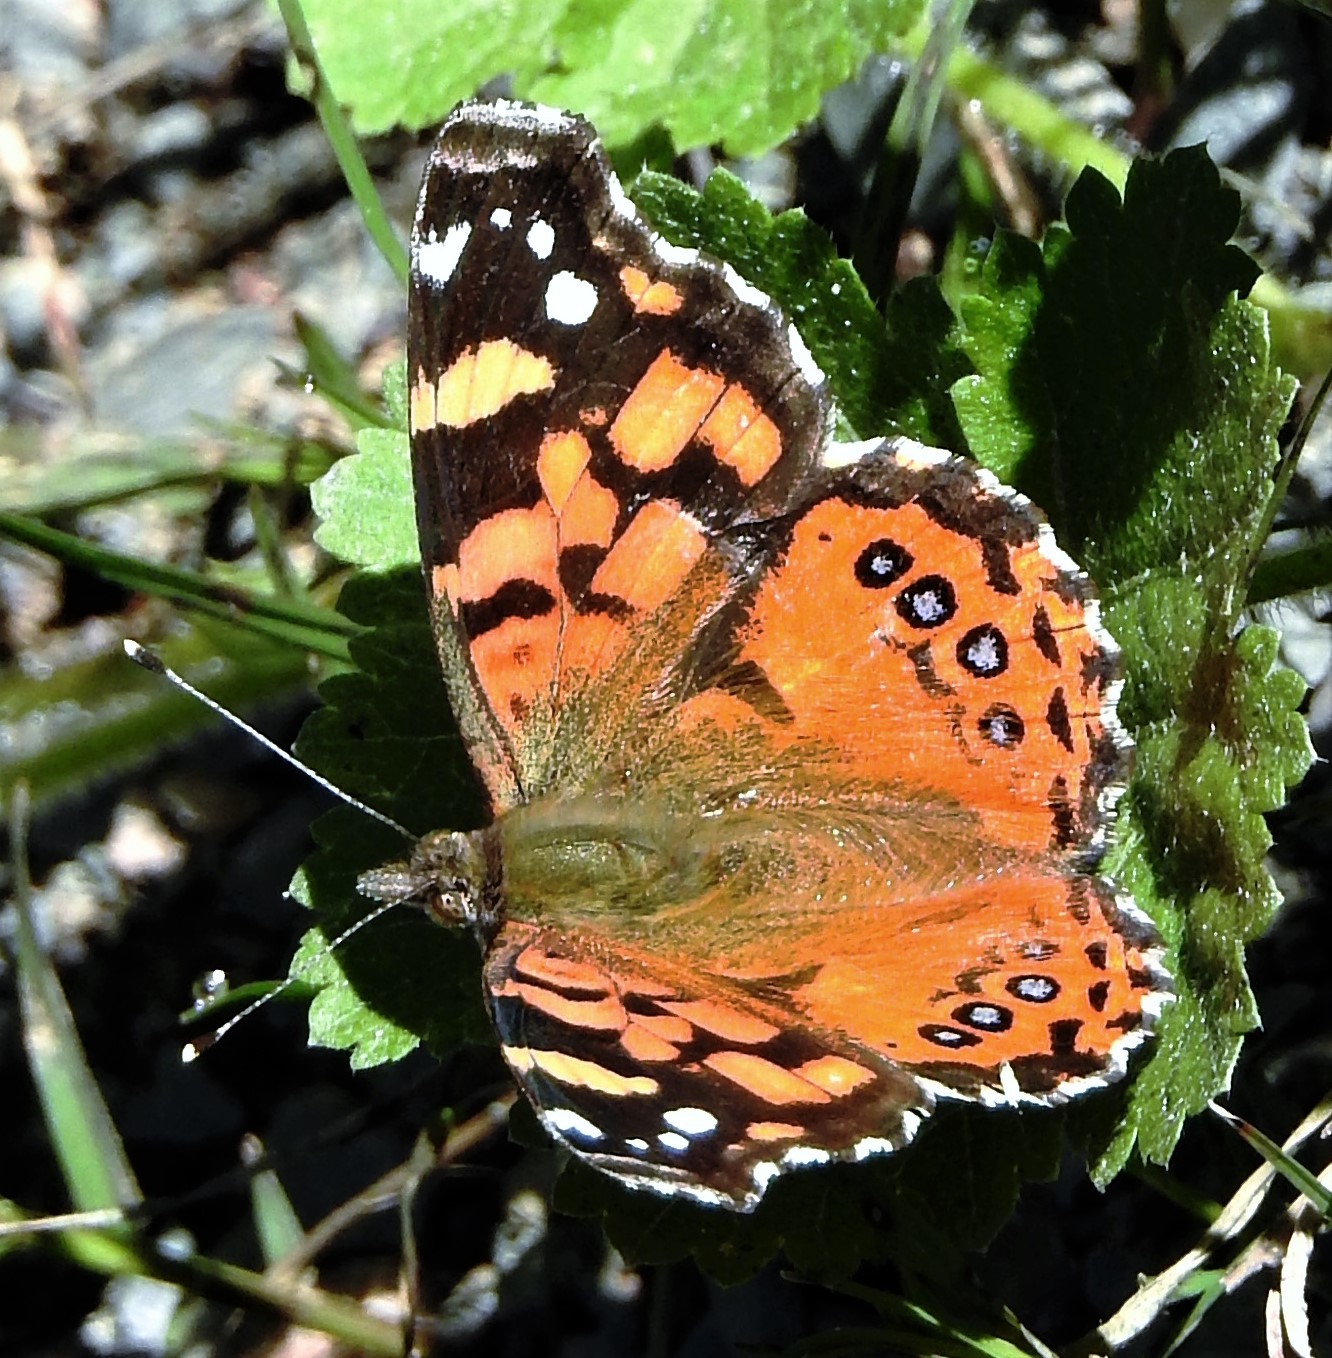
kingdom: Animalia
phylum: Arthropoda
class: Insecta
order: Lepidoptera
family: Nymphalidae
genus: Vanessa
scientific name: Vanessa carye
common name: Subtropical lady
